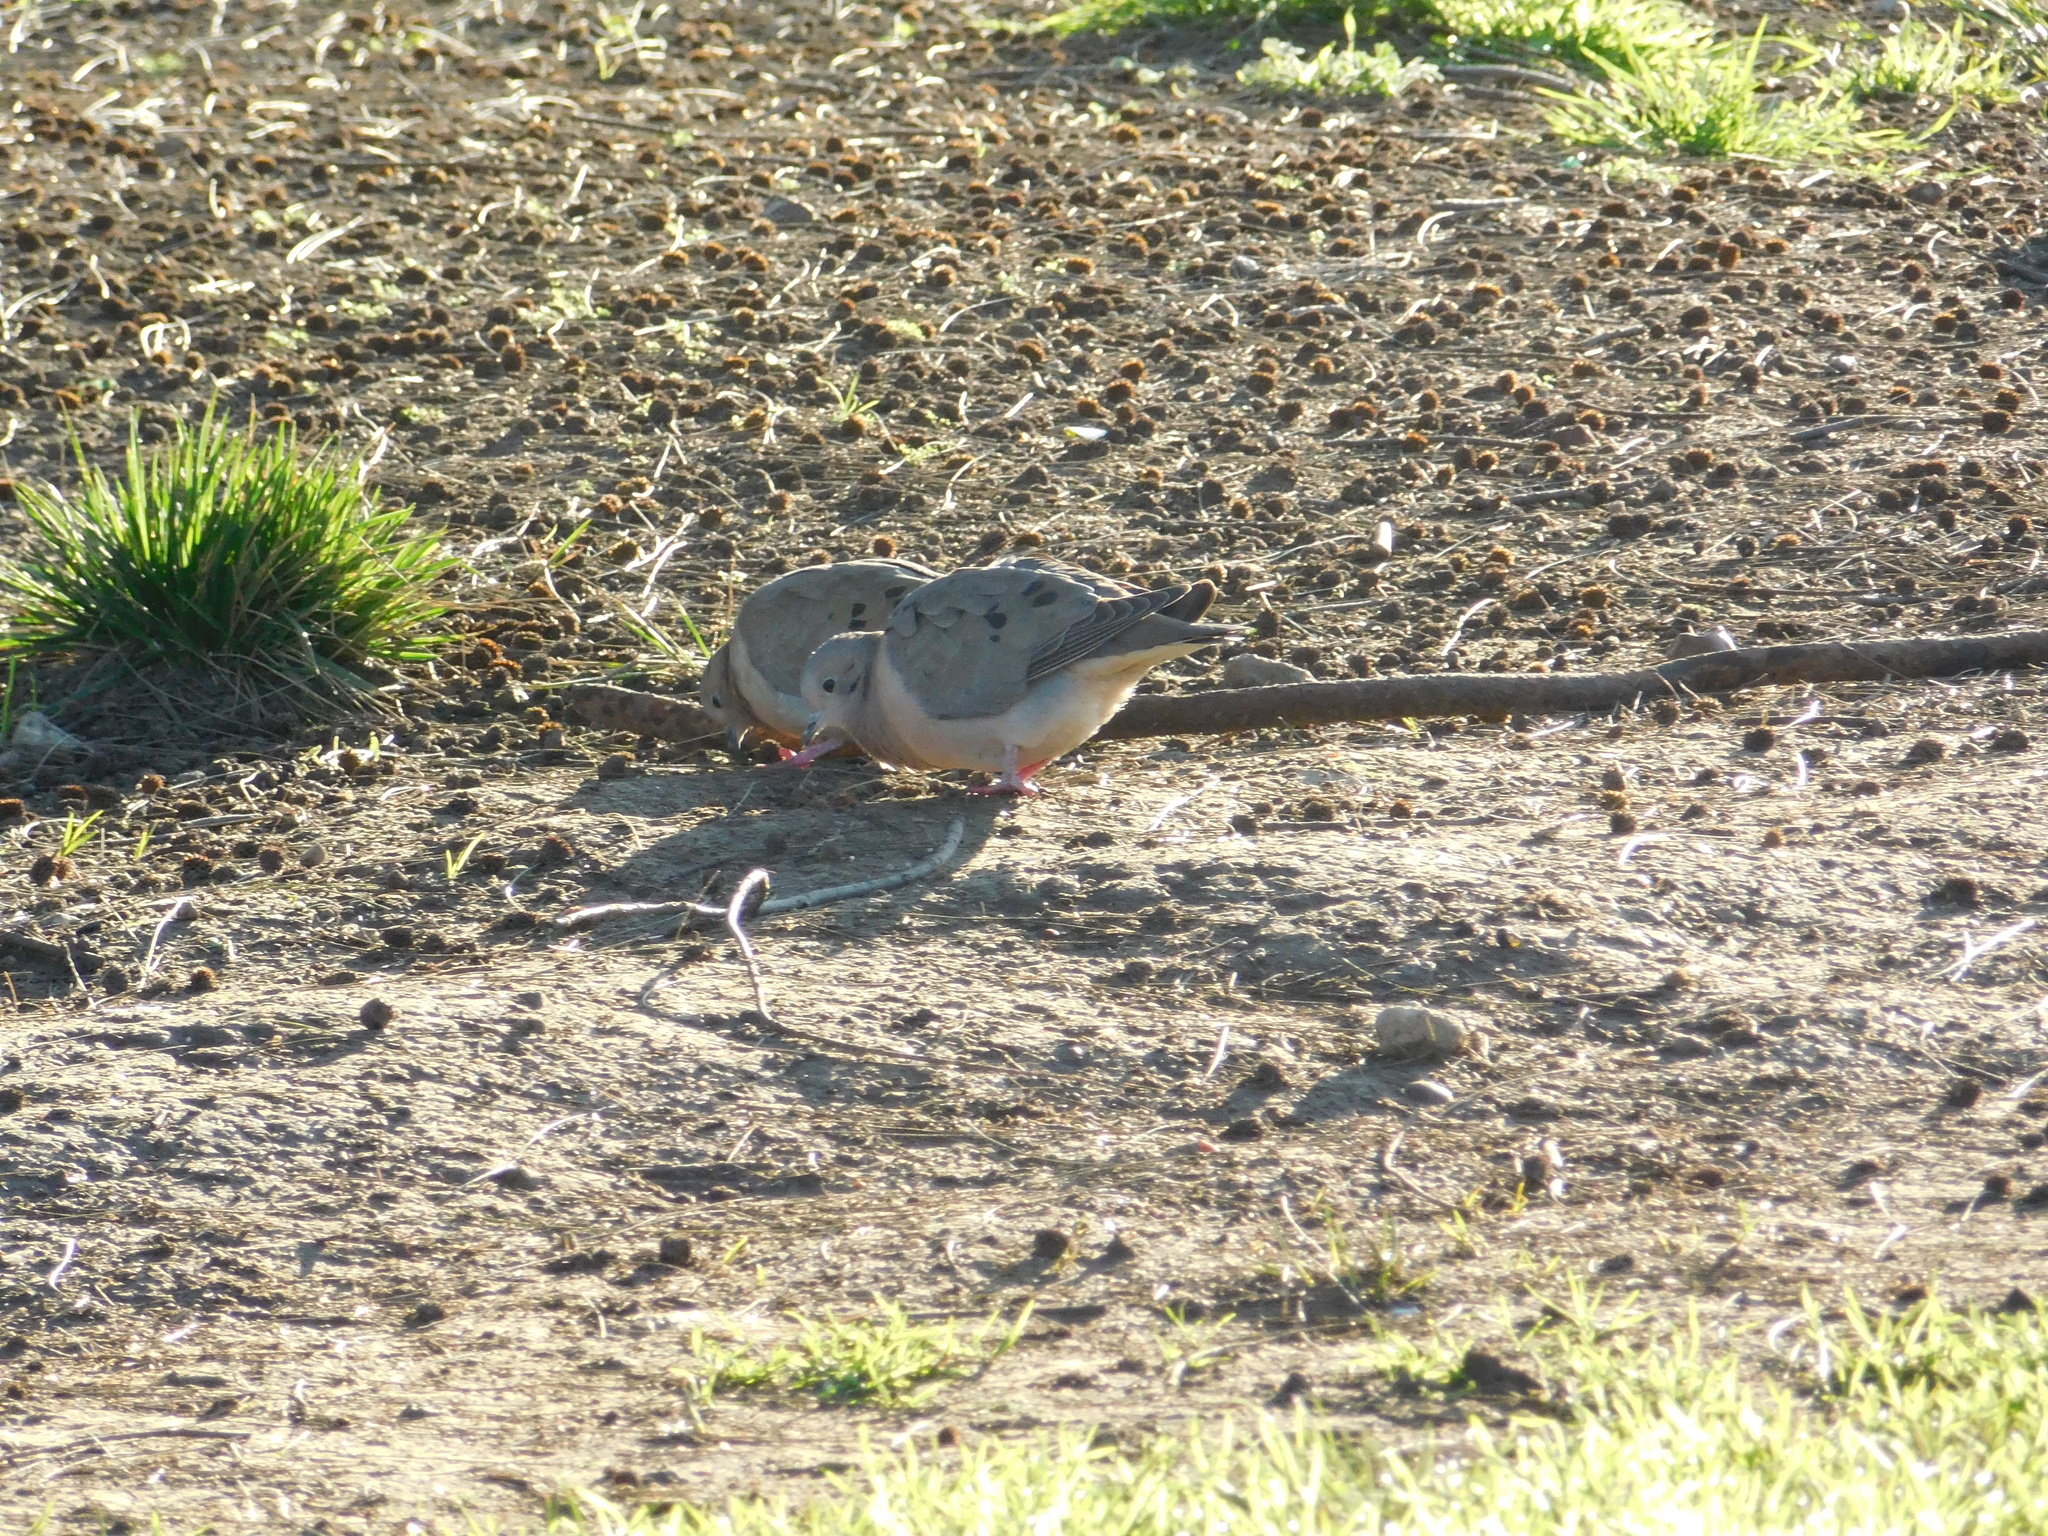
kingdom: Animalia
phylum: Chordata
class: Aves
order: Columbiformes
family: Columbidae
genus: Zenaida
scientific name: Zenaida auriculata
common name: Eared dove
